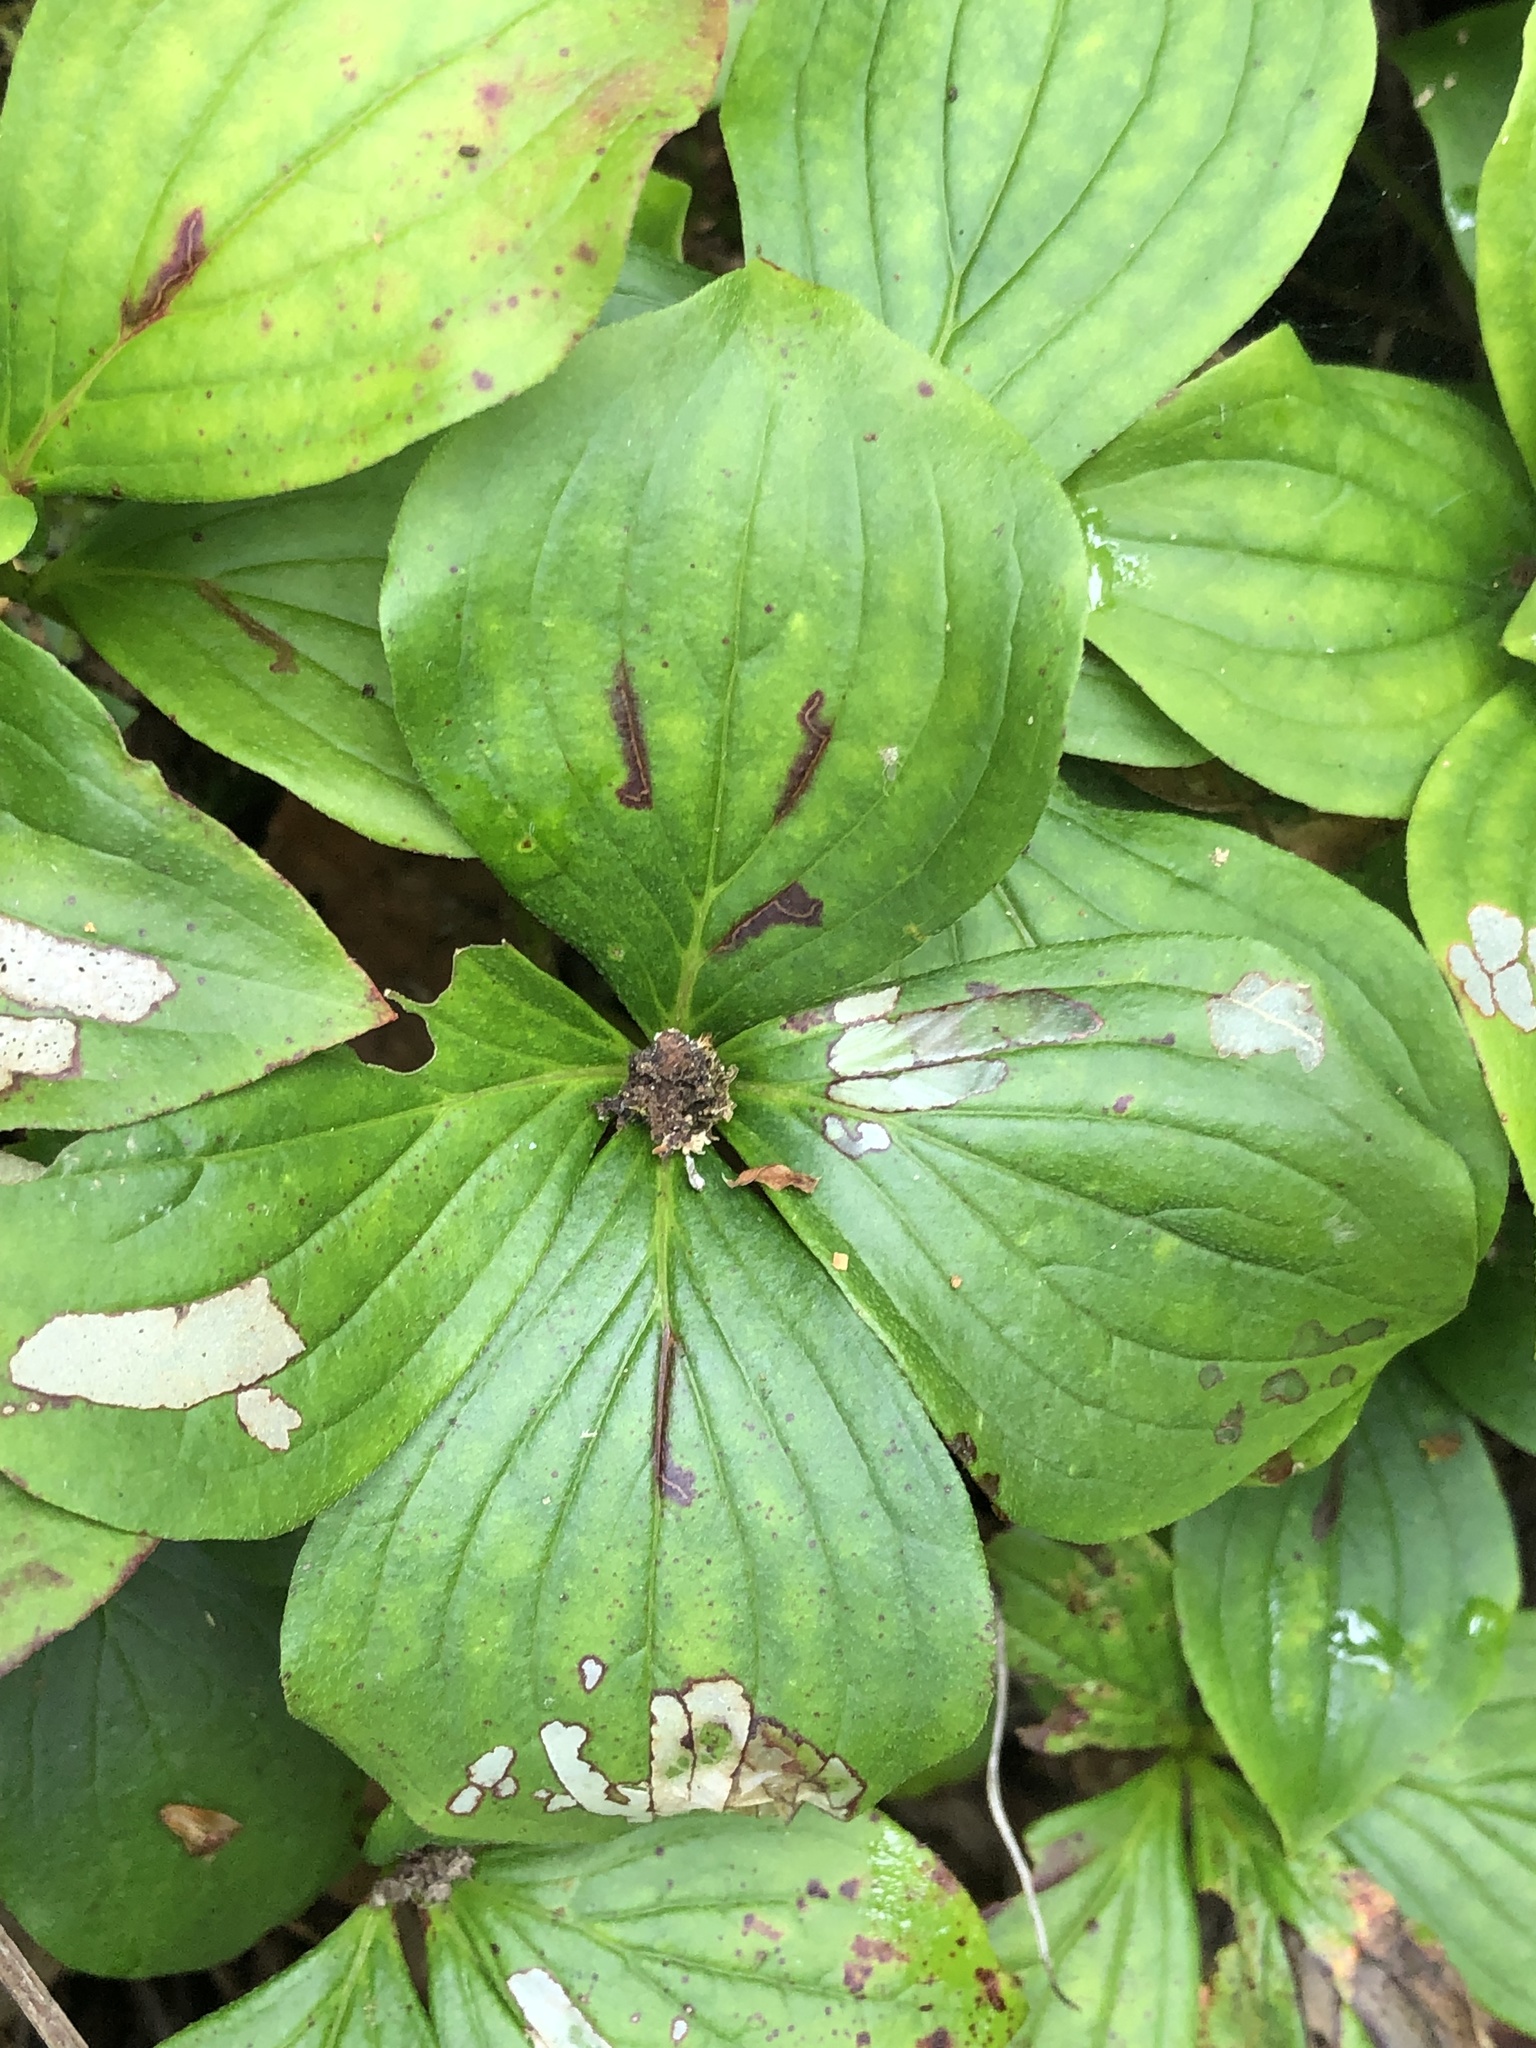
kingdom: Plantae
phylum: Tracheophyta
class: Magnoliopsida
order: Cornales
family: Cornaceae
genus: Cornus
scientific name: Cornus canadensis
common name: Creeping dogwood
